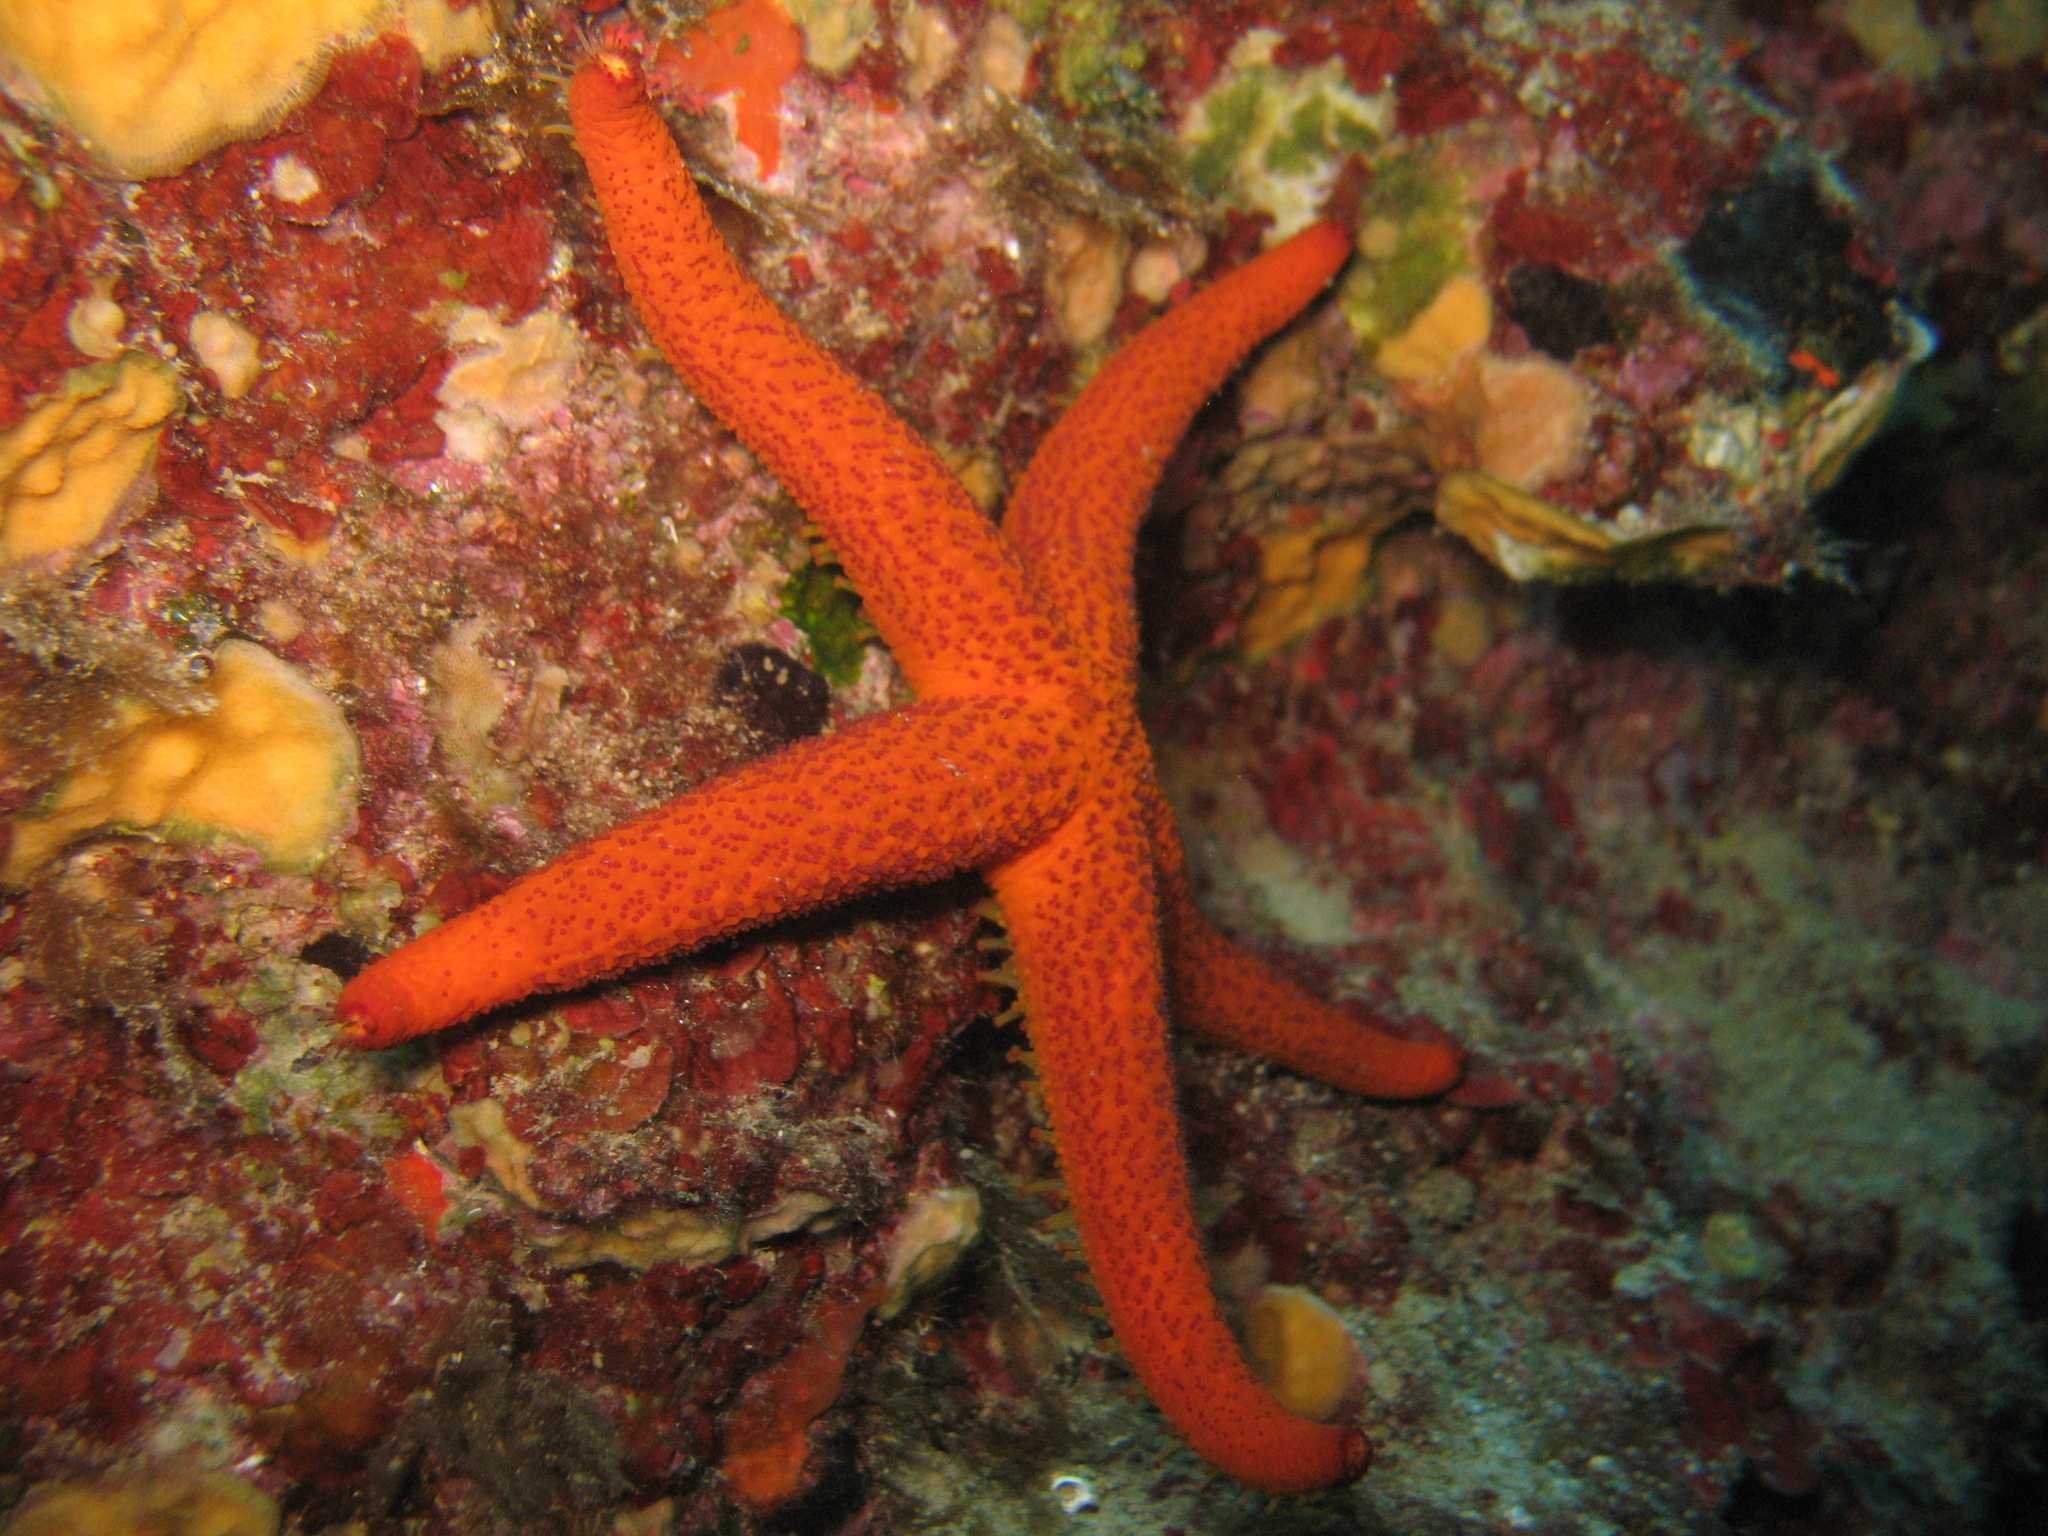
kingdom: Animalia
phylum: Echinodermata
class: Asteroidea
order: Spinulosida
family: Echinasteridae
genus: Echinaster
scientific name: Echinaster sepositus
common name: Red starfish
